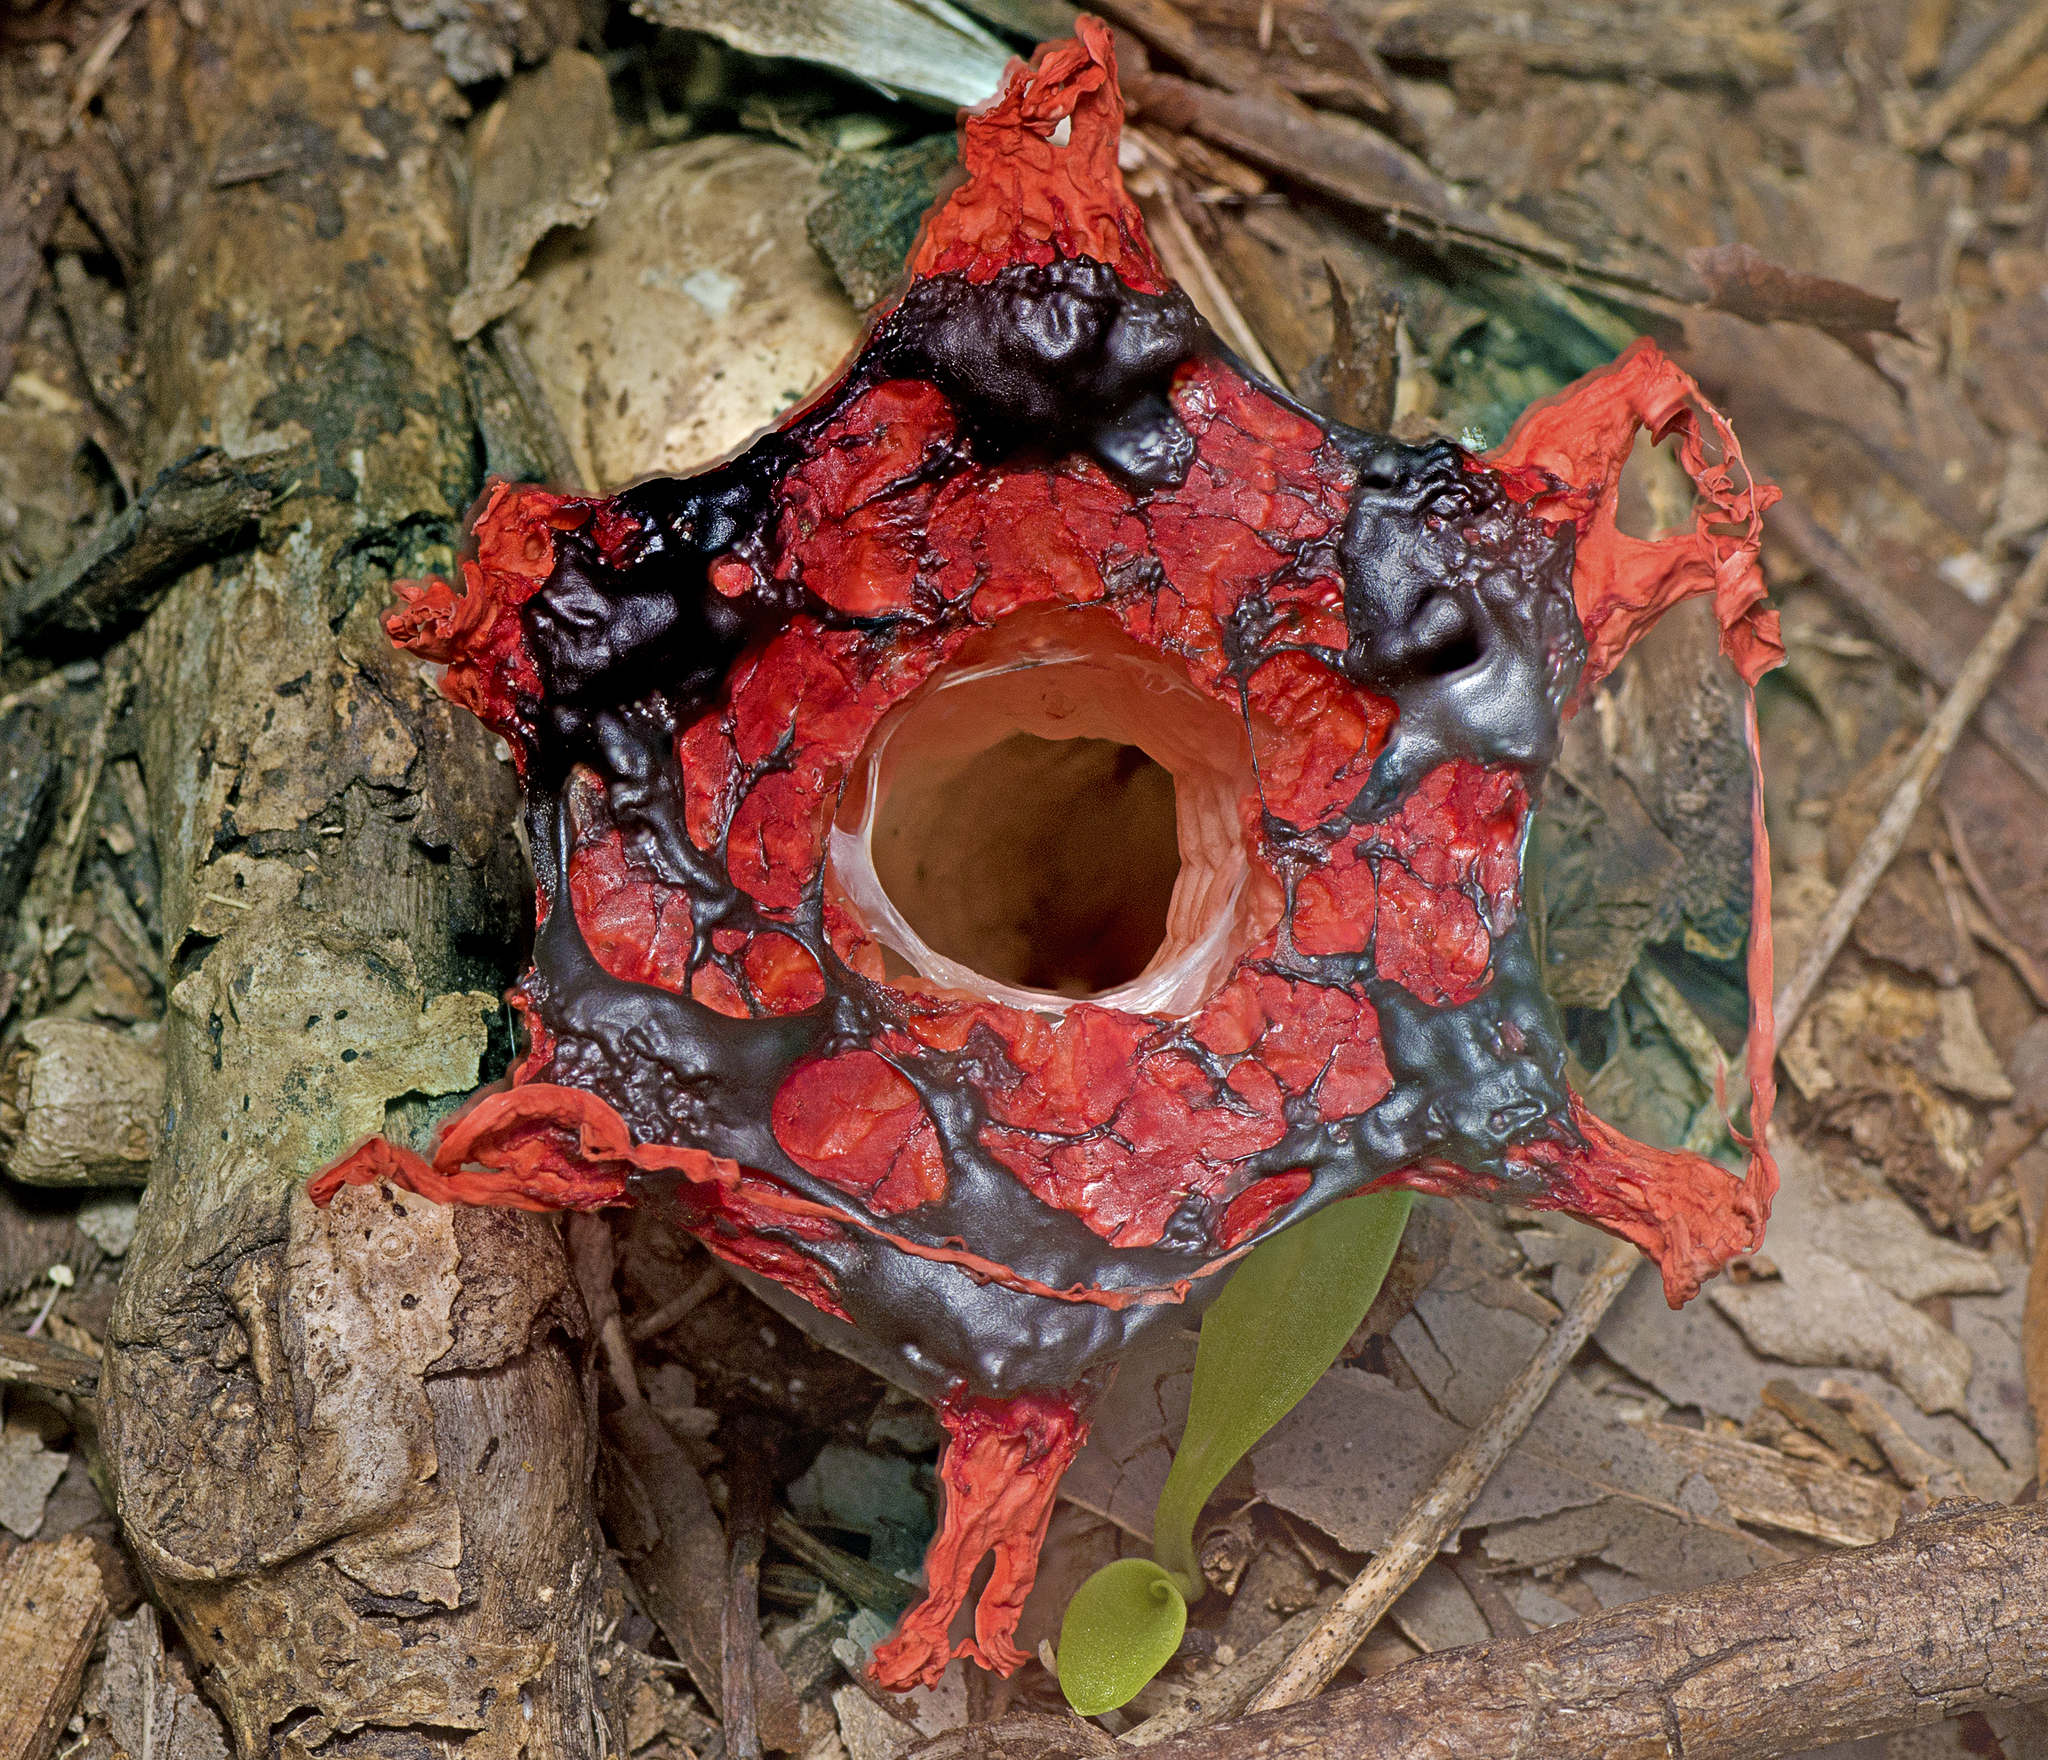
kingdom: Fungi
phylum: Basidiomycota
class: Agaricomycetes
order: Phallales
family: Phallaceae
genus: Aseroe
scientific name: Aseroe rubra
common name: Starfish fungus
